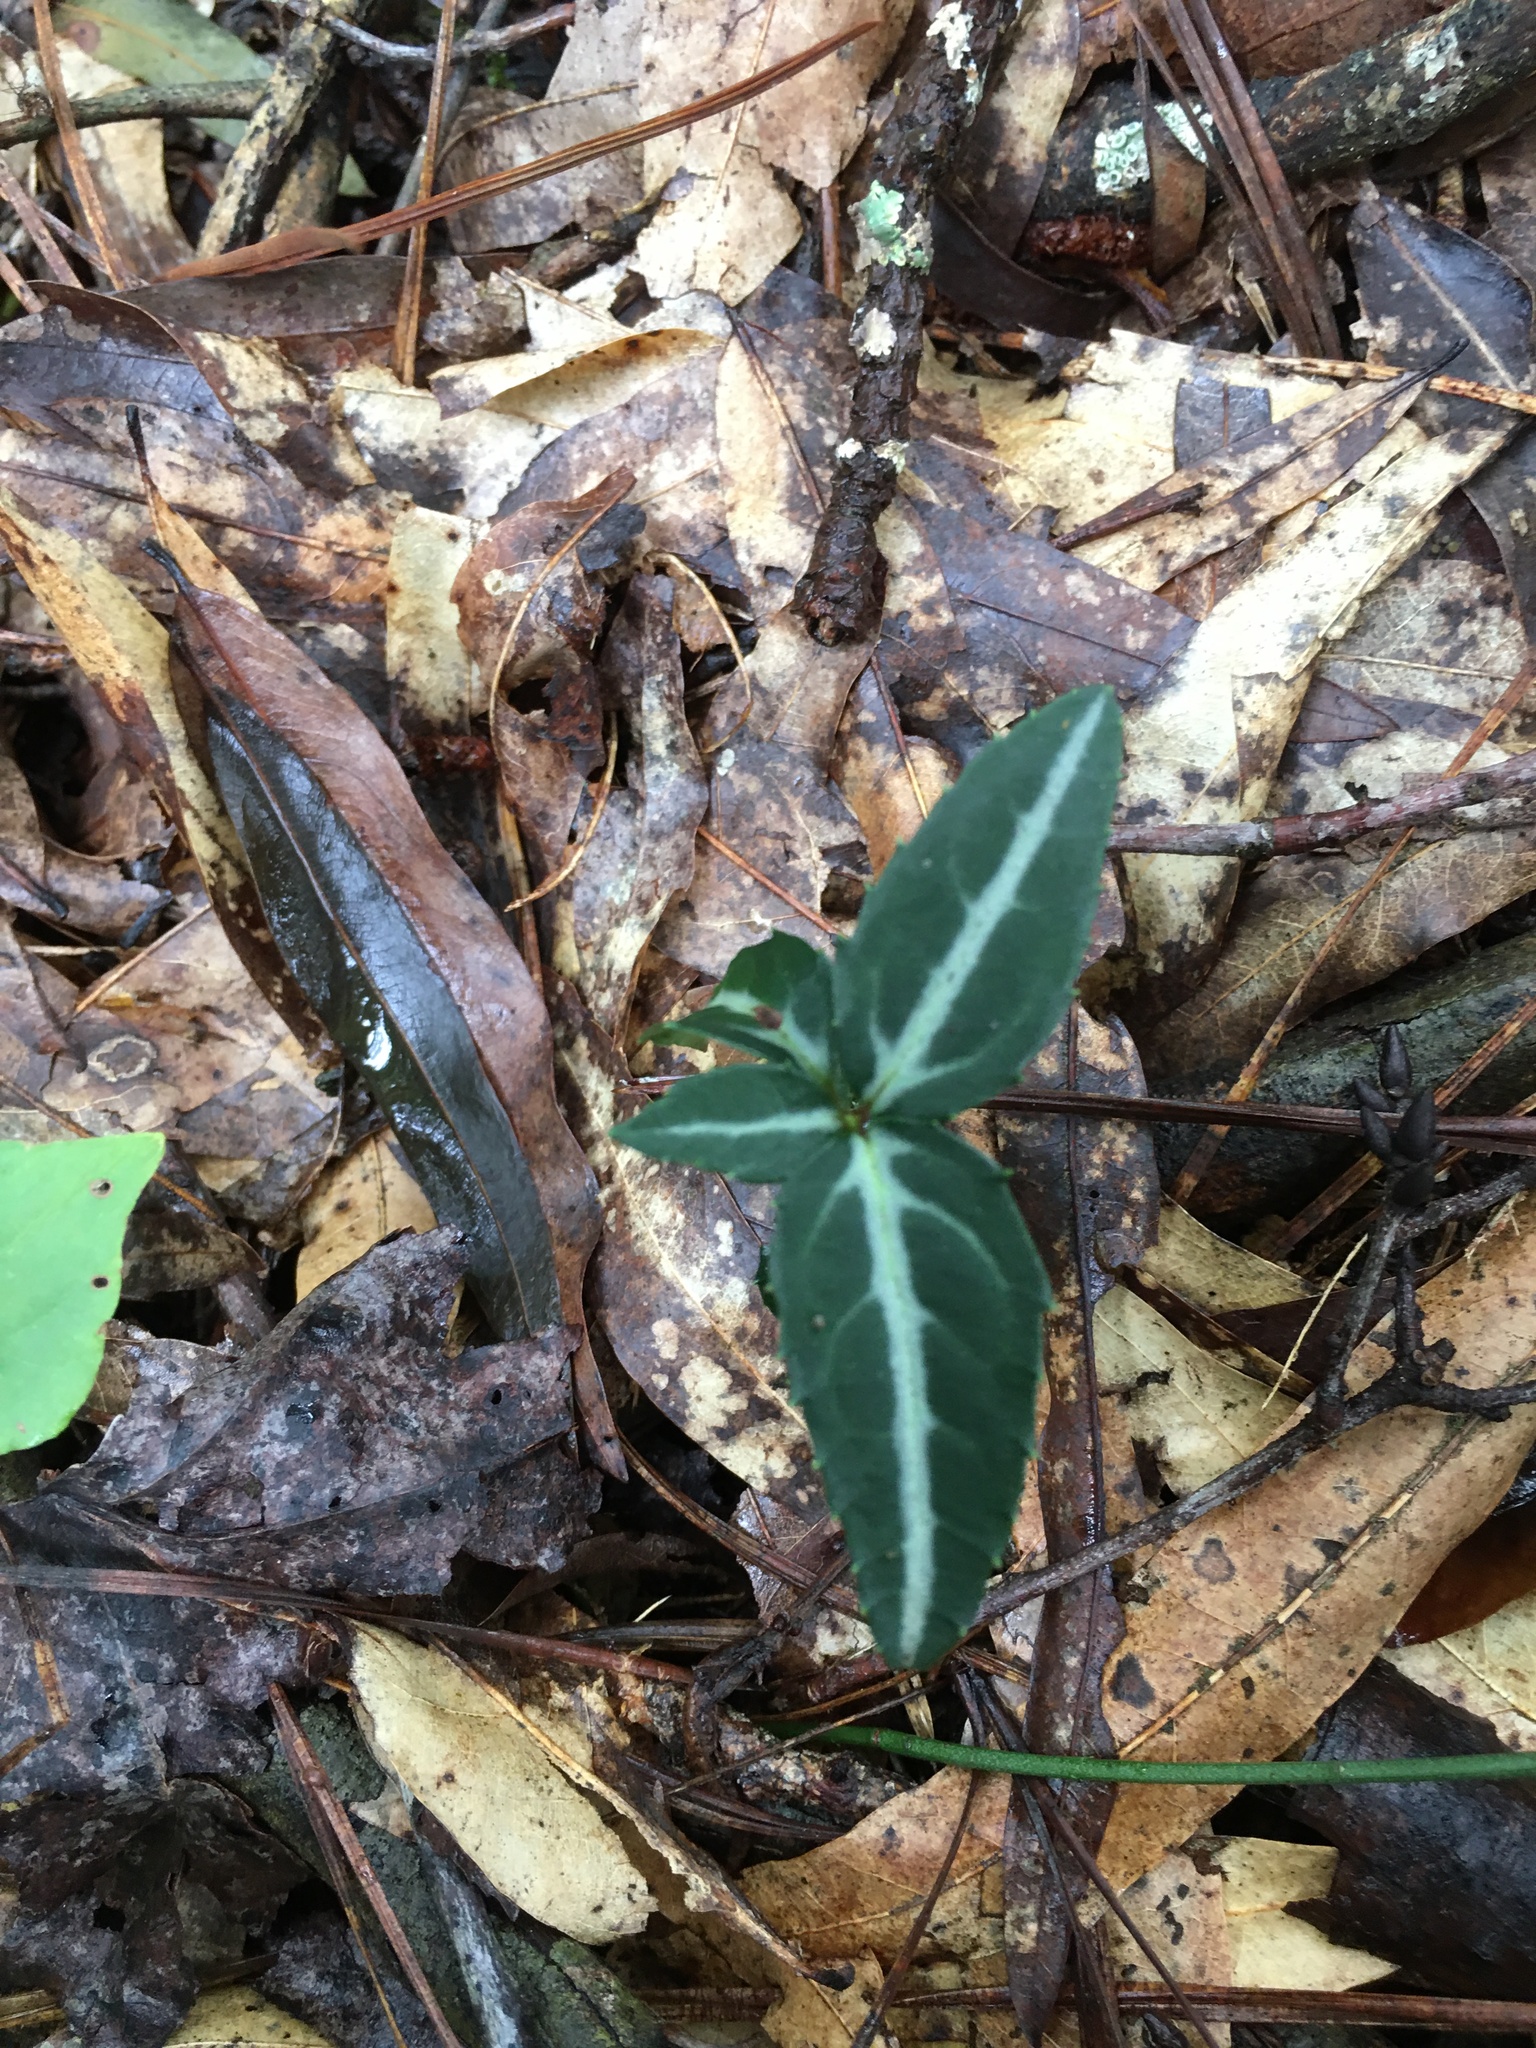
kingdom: Plantae
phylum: Tracheophyta
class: Magnoliopsida
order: Ericales
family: Ericaceae
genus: Chimaphila
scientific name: Chimaphila maculata
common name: Spotted pipsissewa
